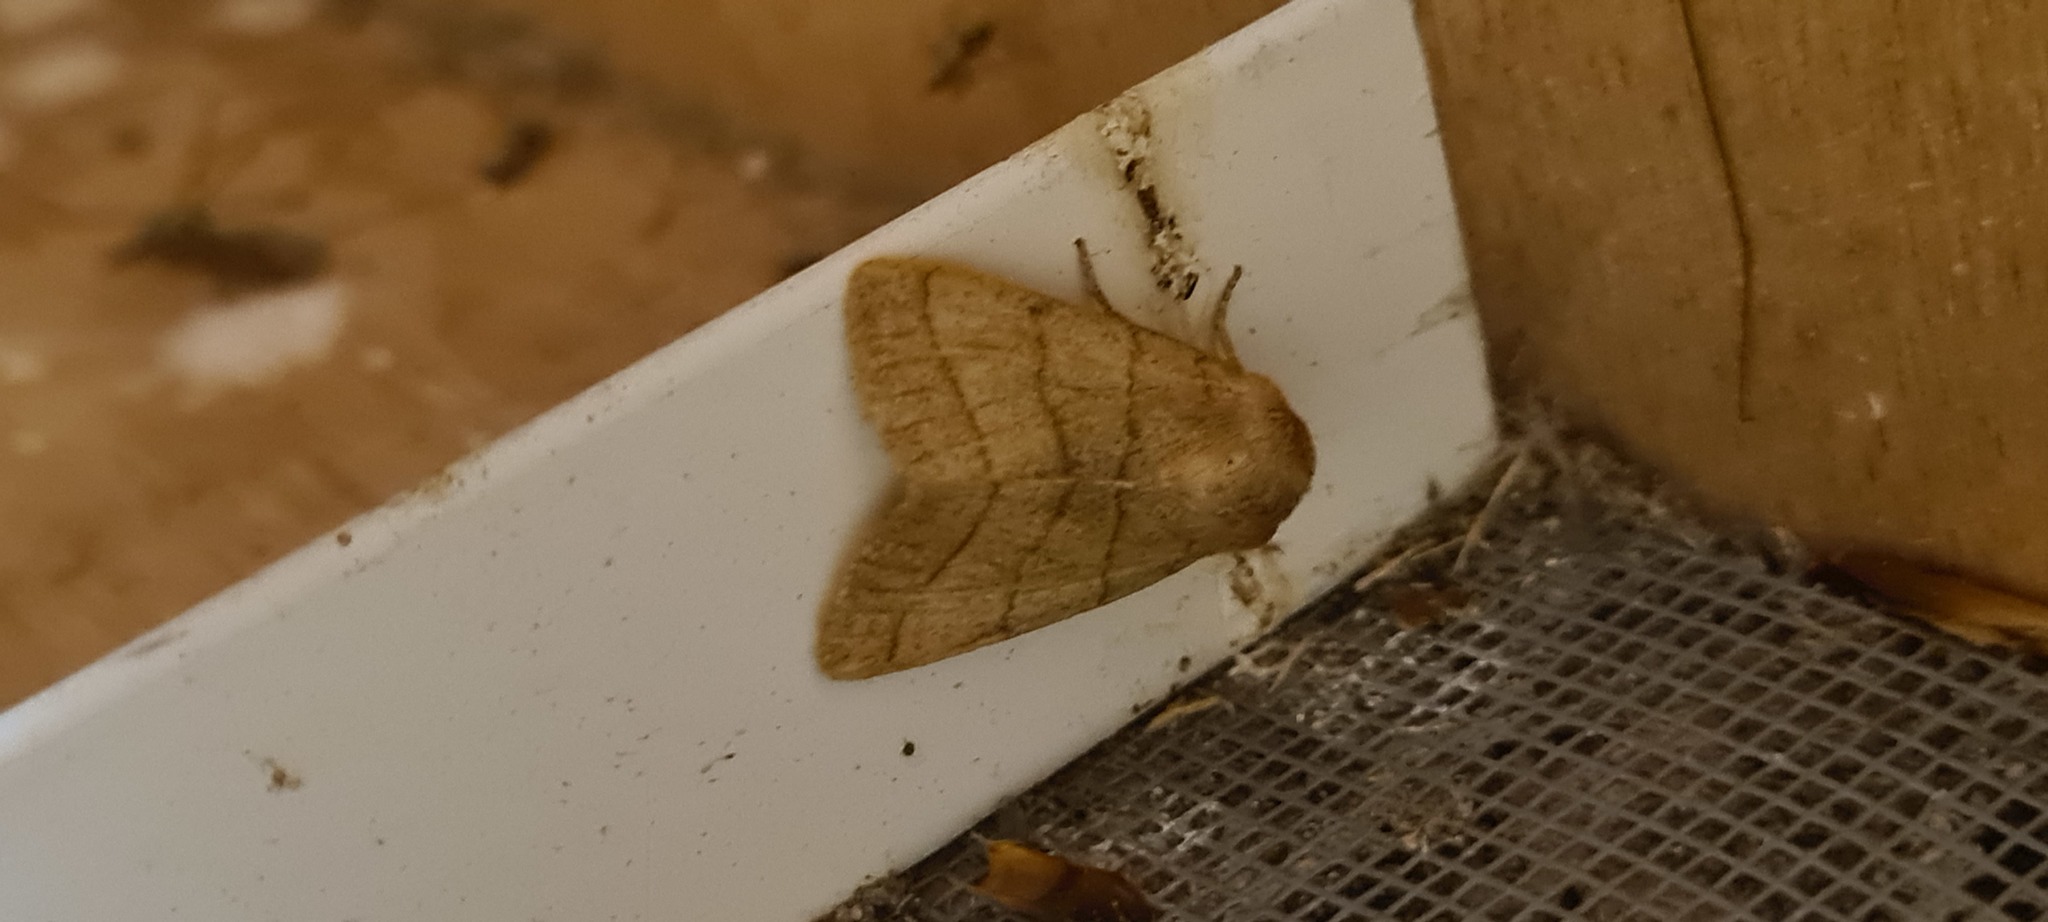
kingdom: Animalia
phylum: Arthropoda
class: Insecta
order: Lepidoptera
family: Noctuidae
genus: Charanyca
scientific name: Charanyca trigrammica
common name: Treble lines
